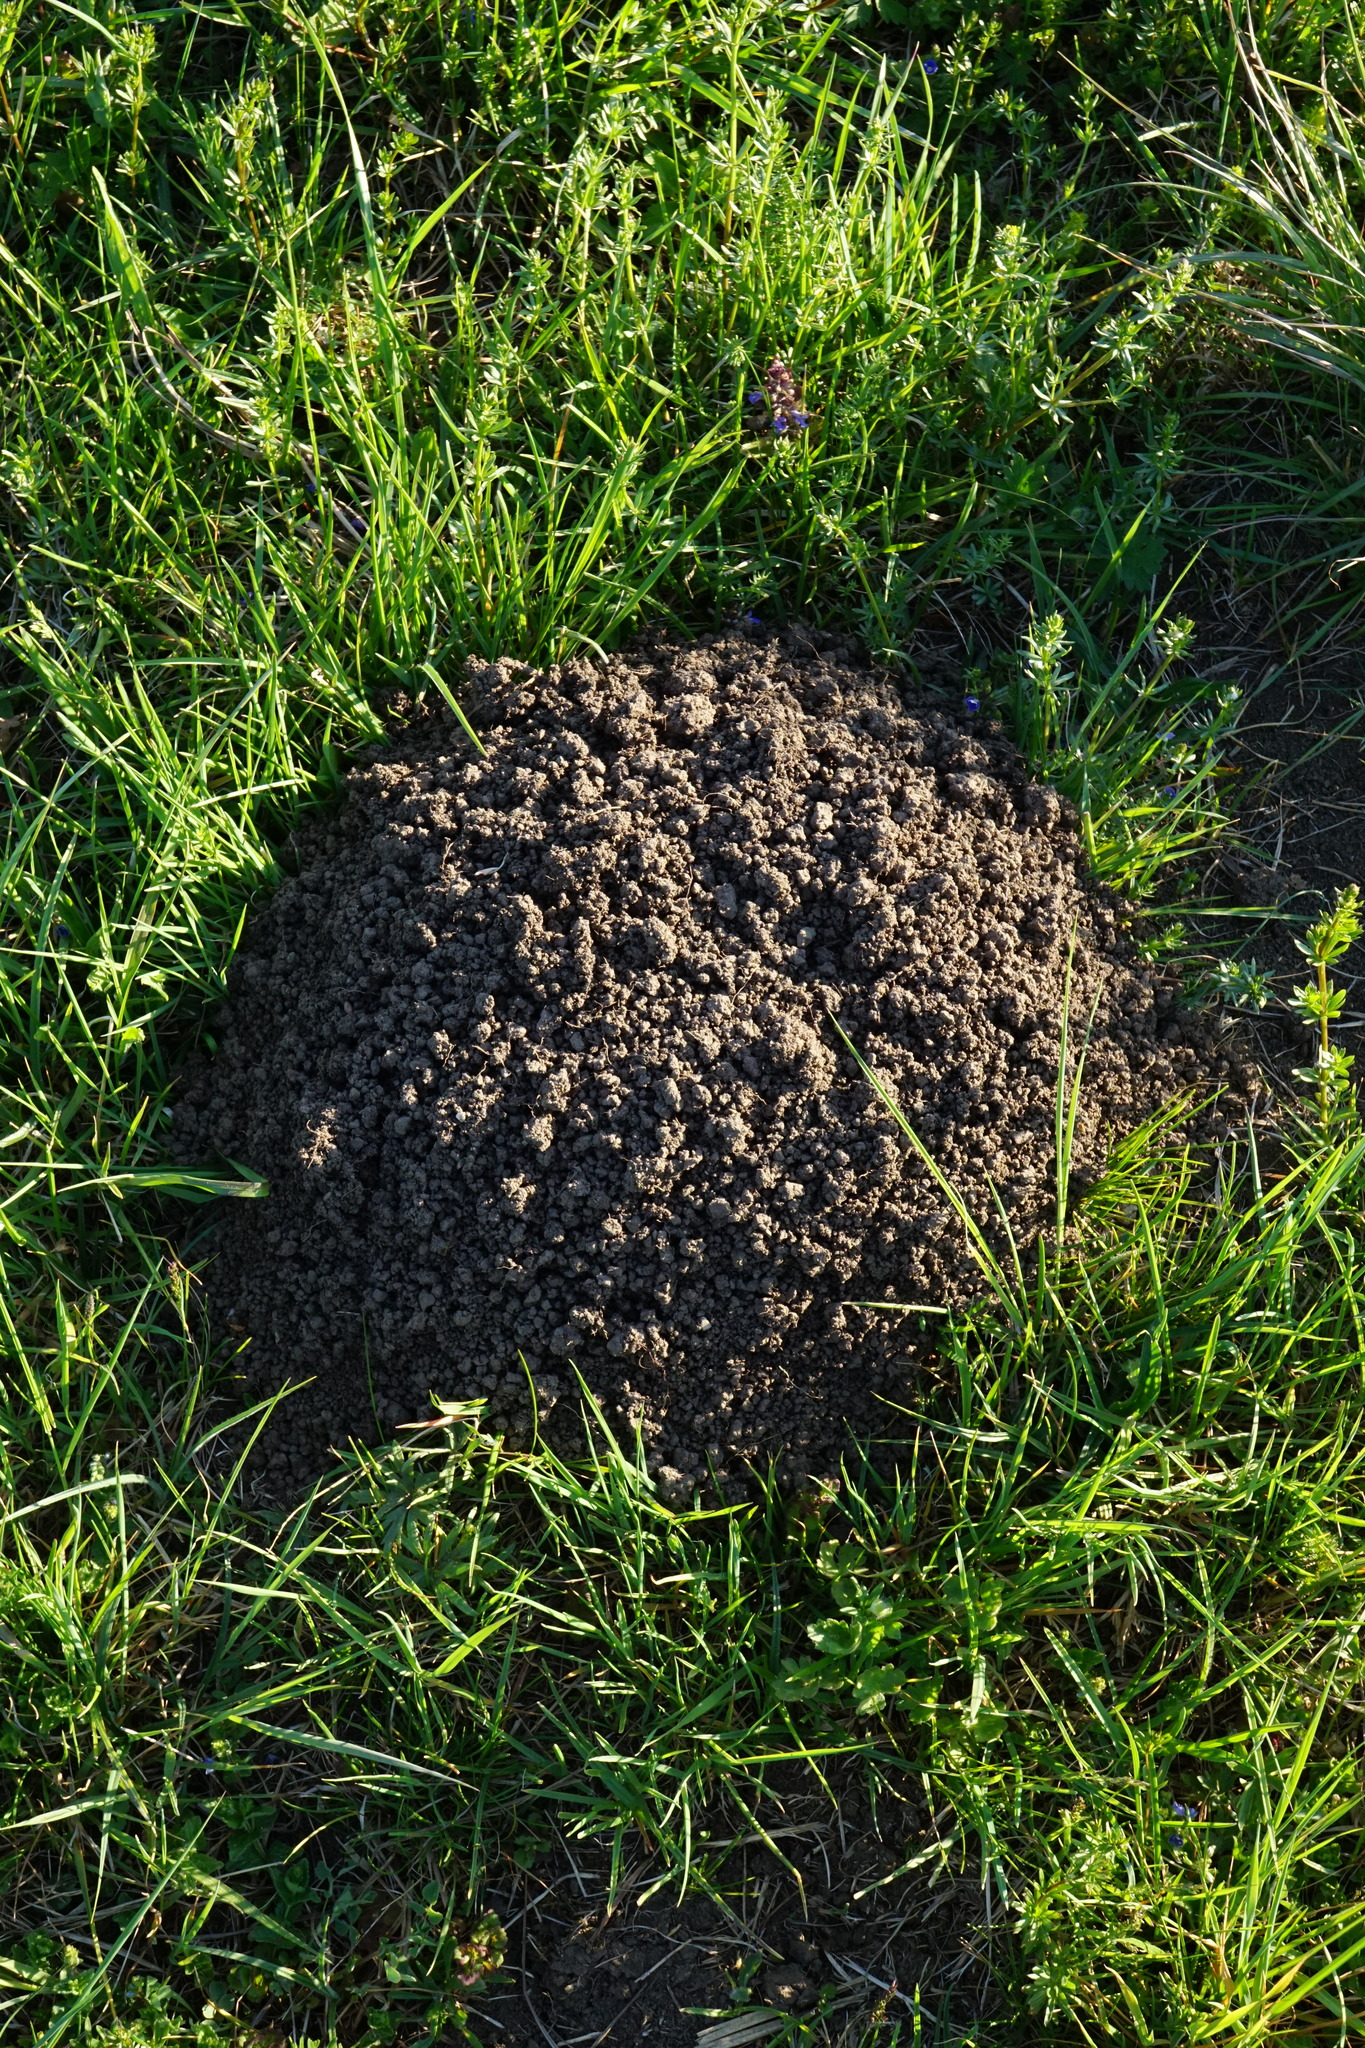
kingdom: Animalia
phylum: Chordata
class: Mammalia
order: Soricomorpha
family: Talpidae
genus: Talpa
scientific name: Talpa europaea
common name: European mole
